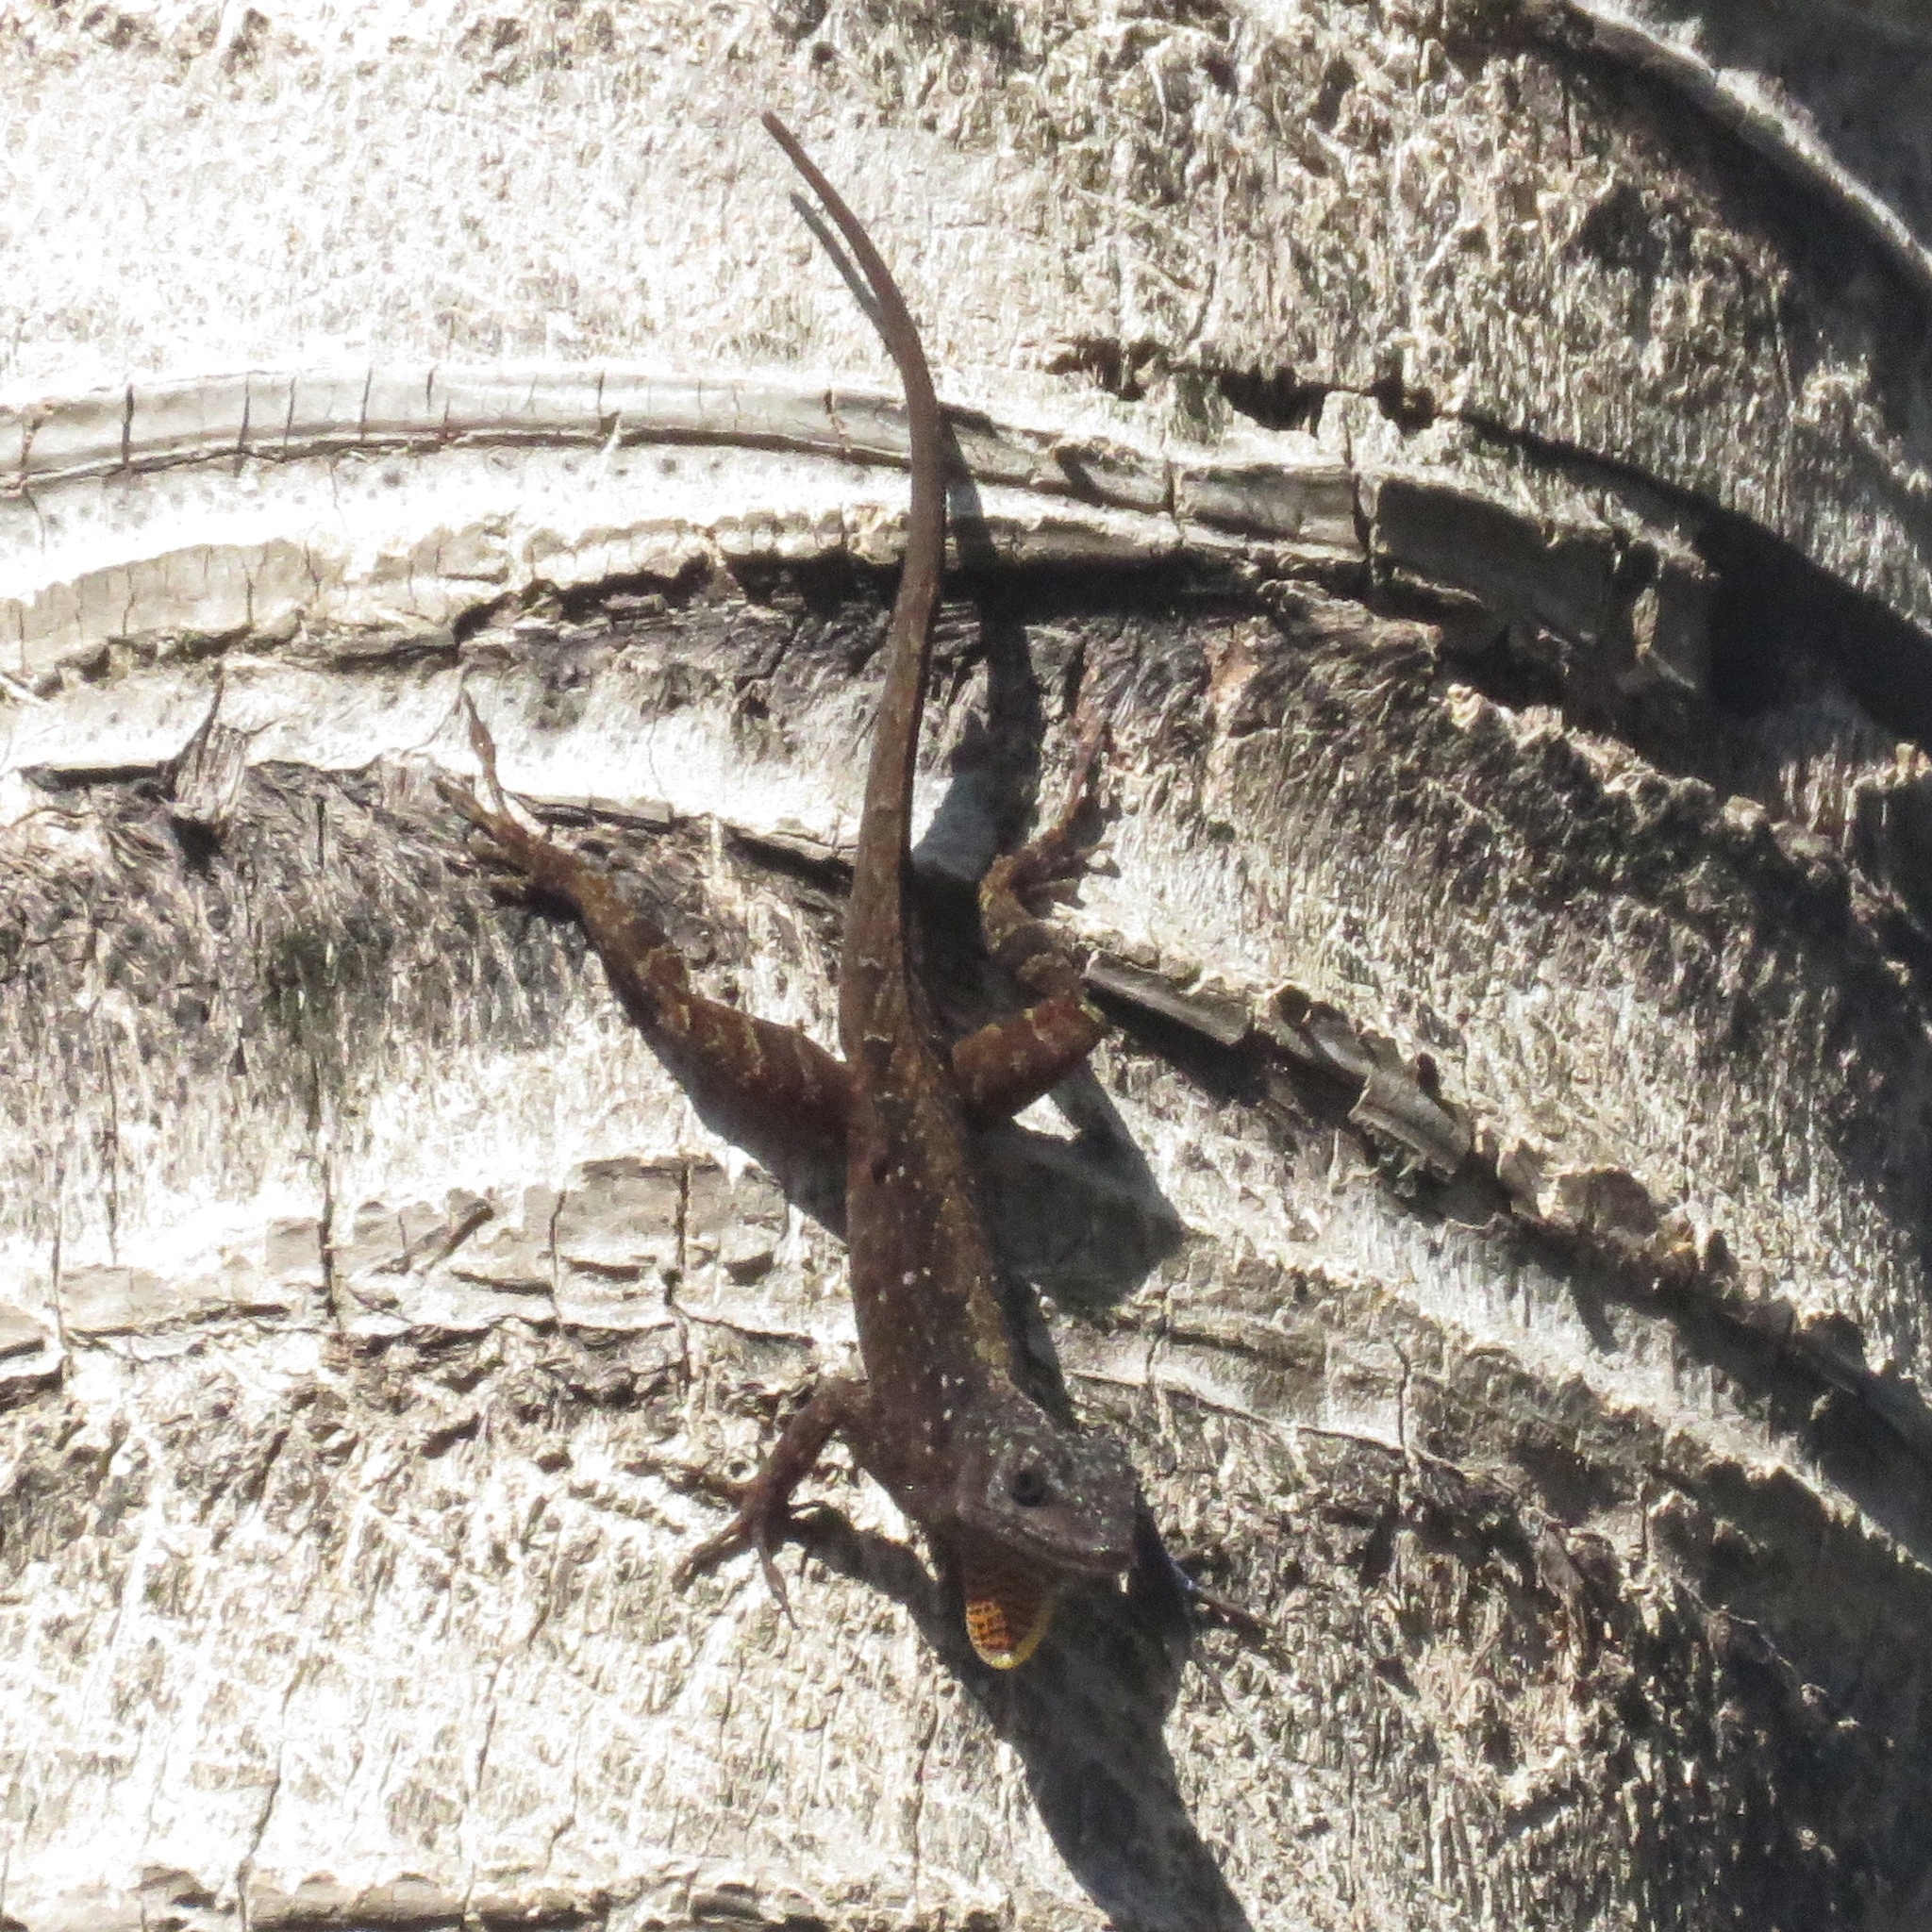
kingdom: Animalia
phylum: Chordata
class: Squamata
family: Dactyloidae
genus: Anolis
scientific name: Anolis sagrei
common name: Brown anole
